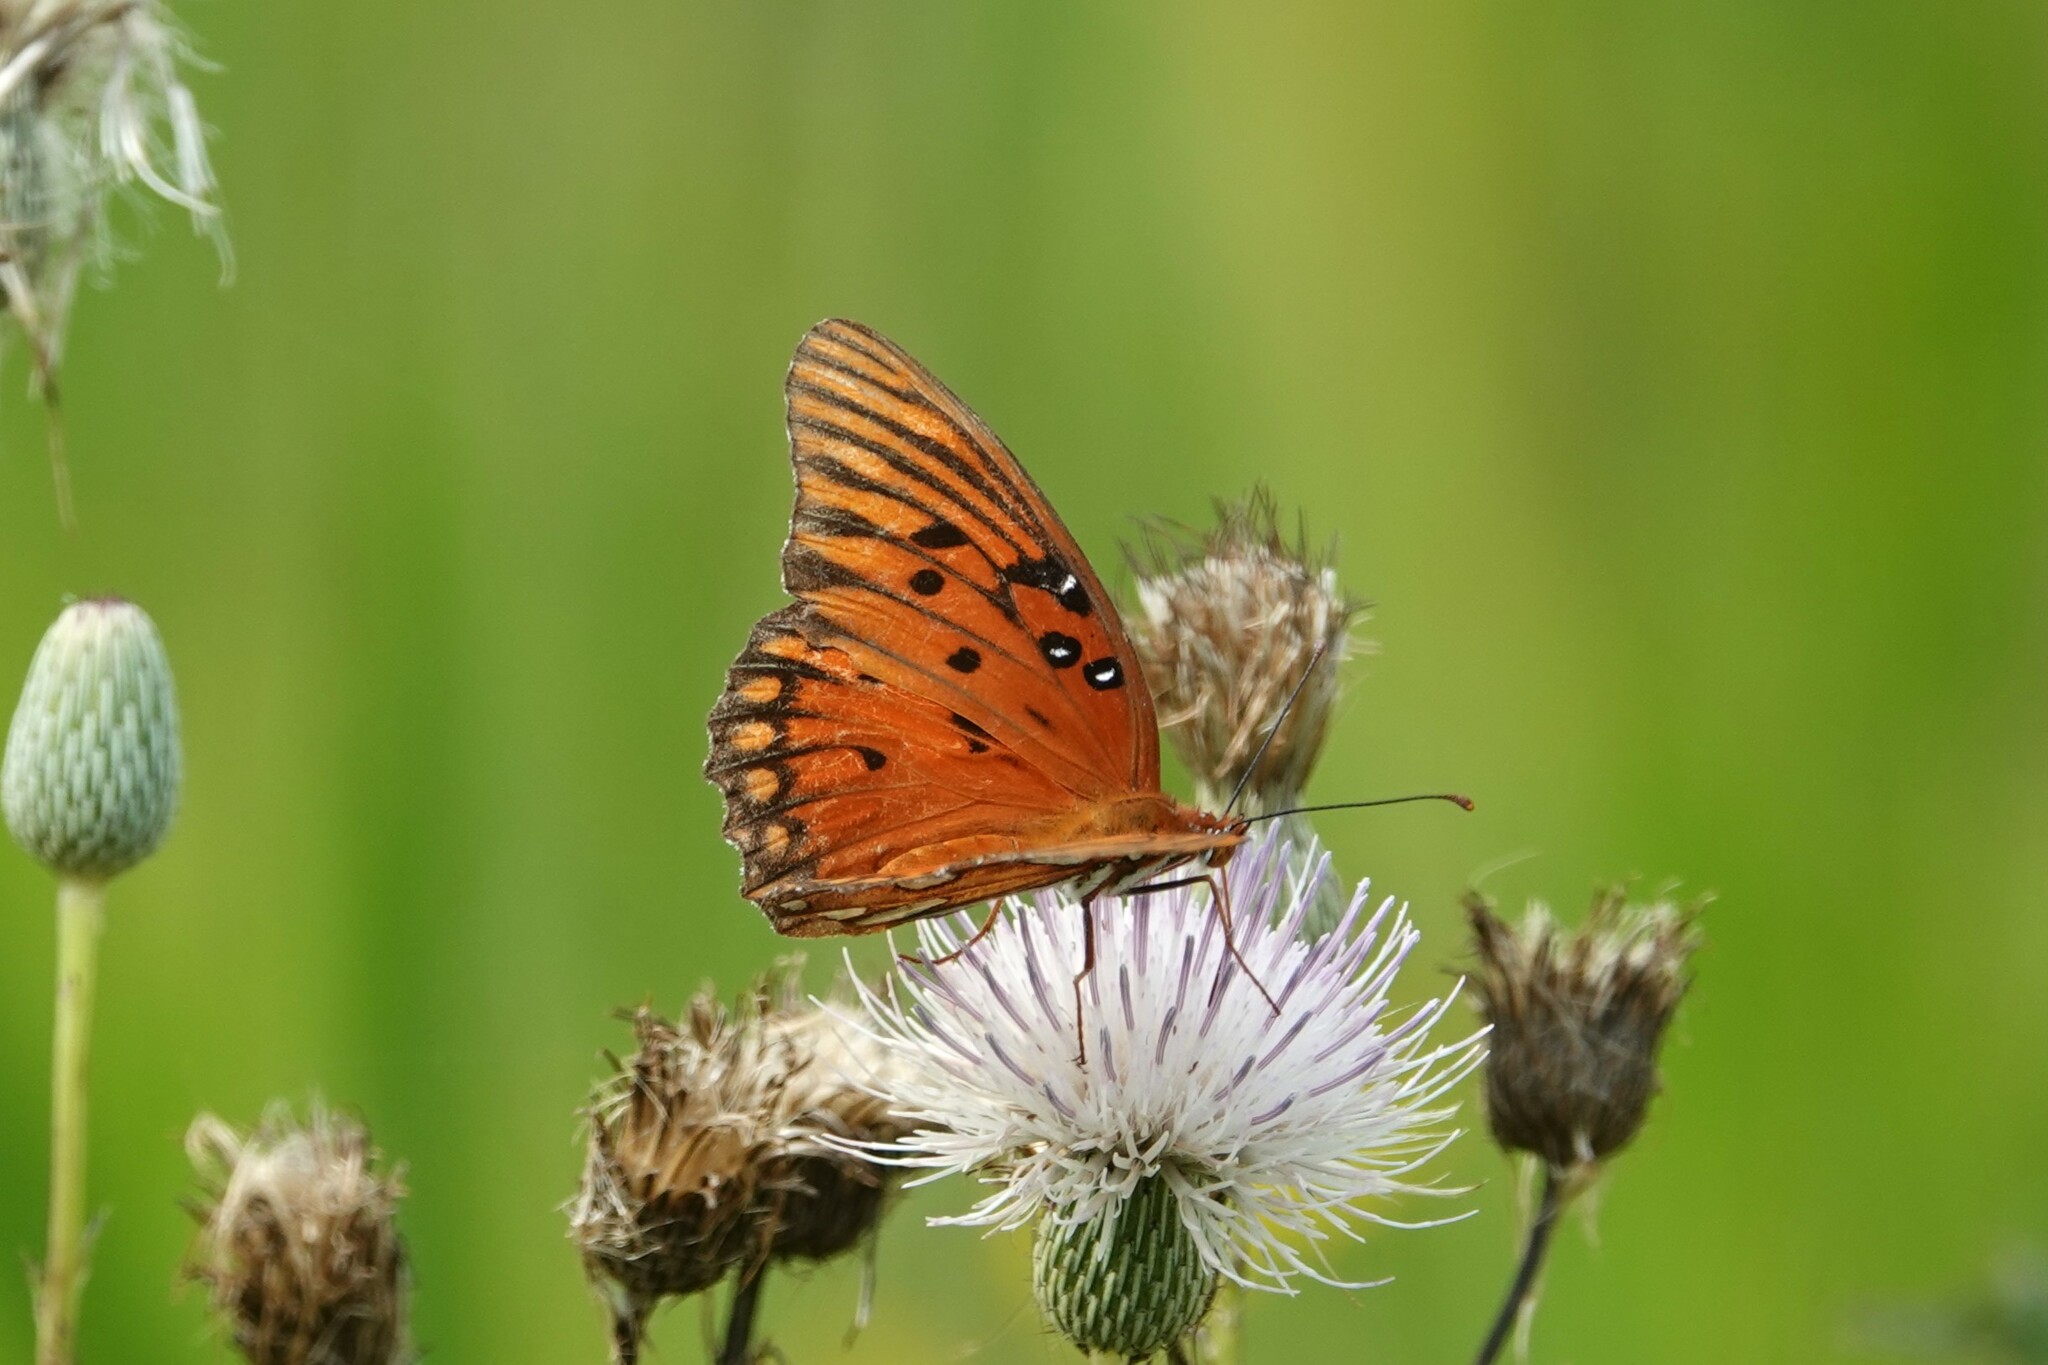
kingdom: Animalia
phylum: Arthropoda
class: Insecta
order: Lepidoptera
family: Nymphalidae
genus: Dione
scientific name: Dione vanillae
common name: Gulf fritillary
